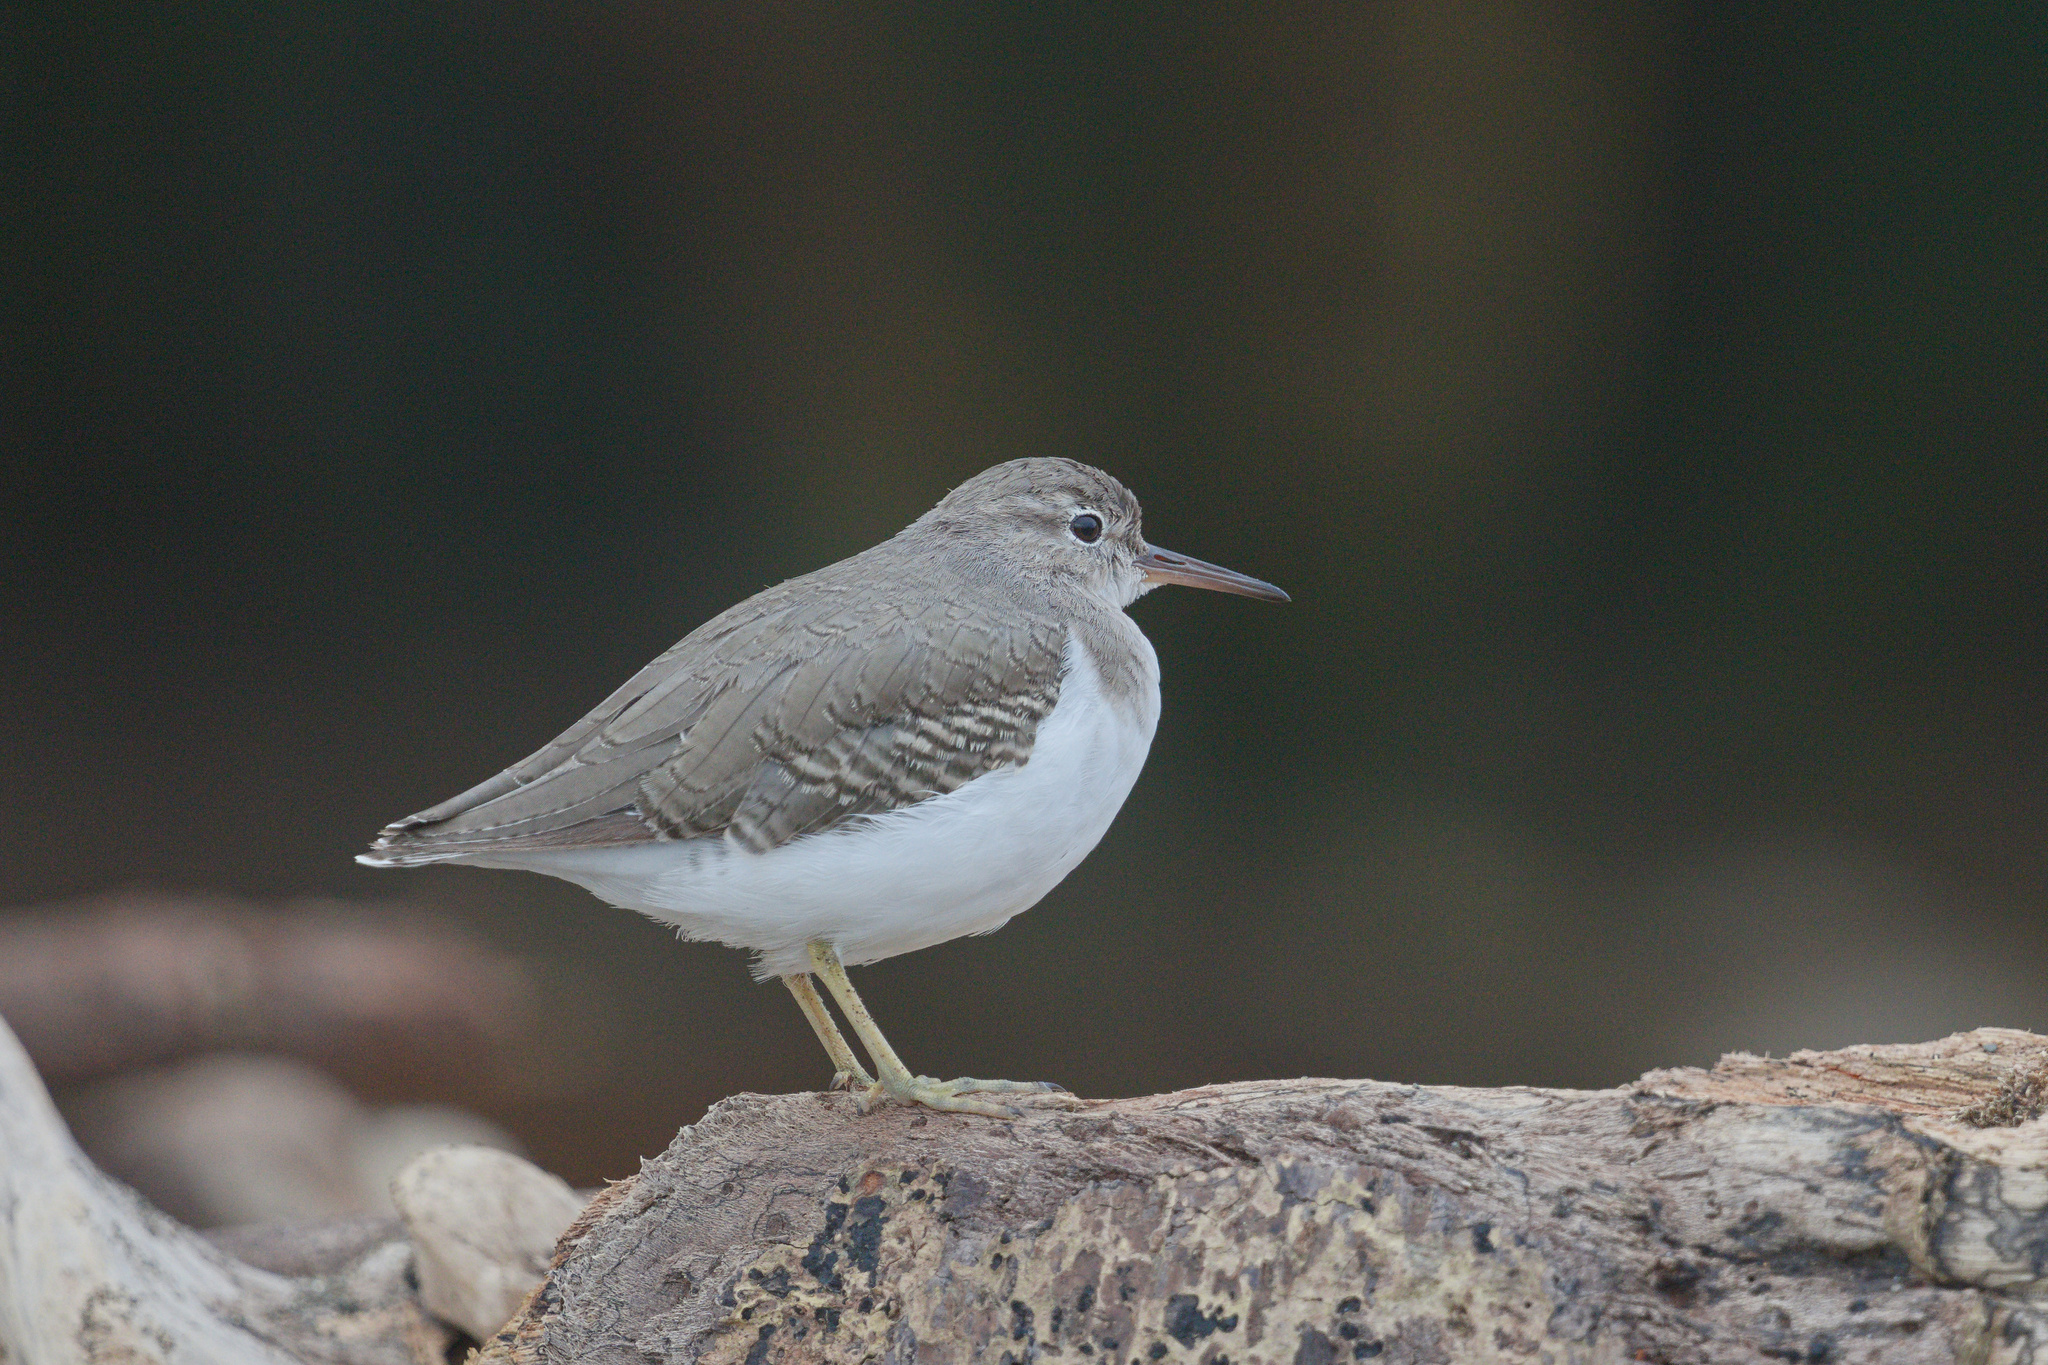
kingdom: Animalia
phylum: Chordata
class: Aves
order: Charadriiformes
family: Scolopacidae
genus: Actitis
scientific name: Actitis macularius
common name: Spotted sandpiper
